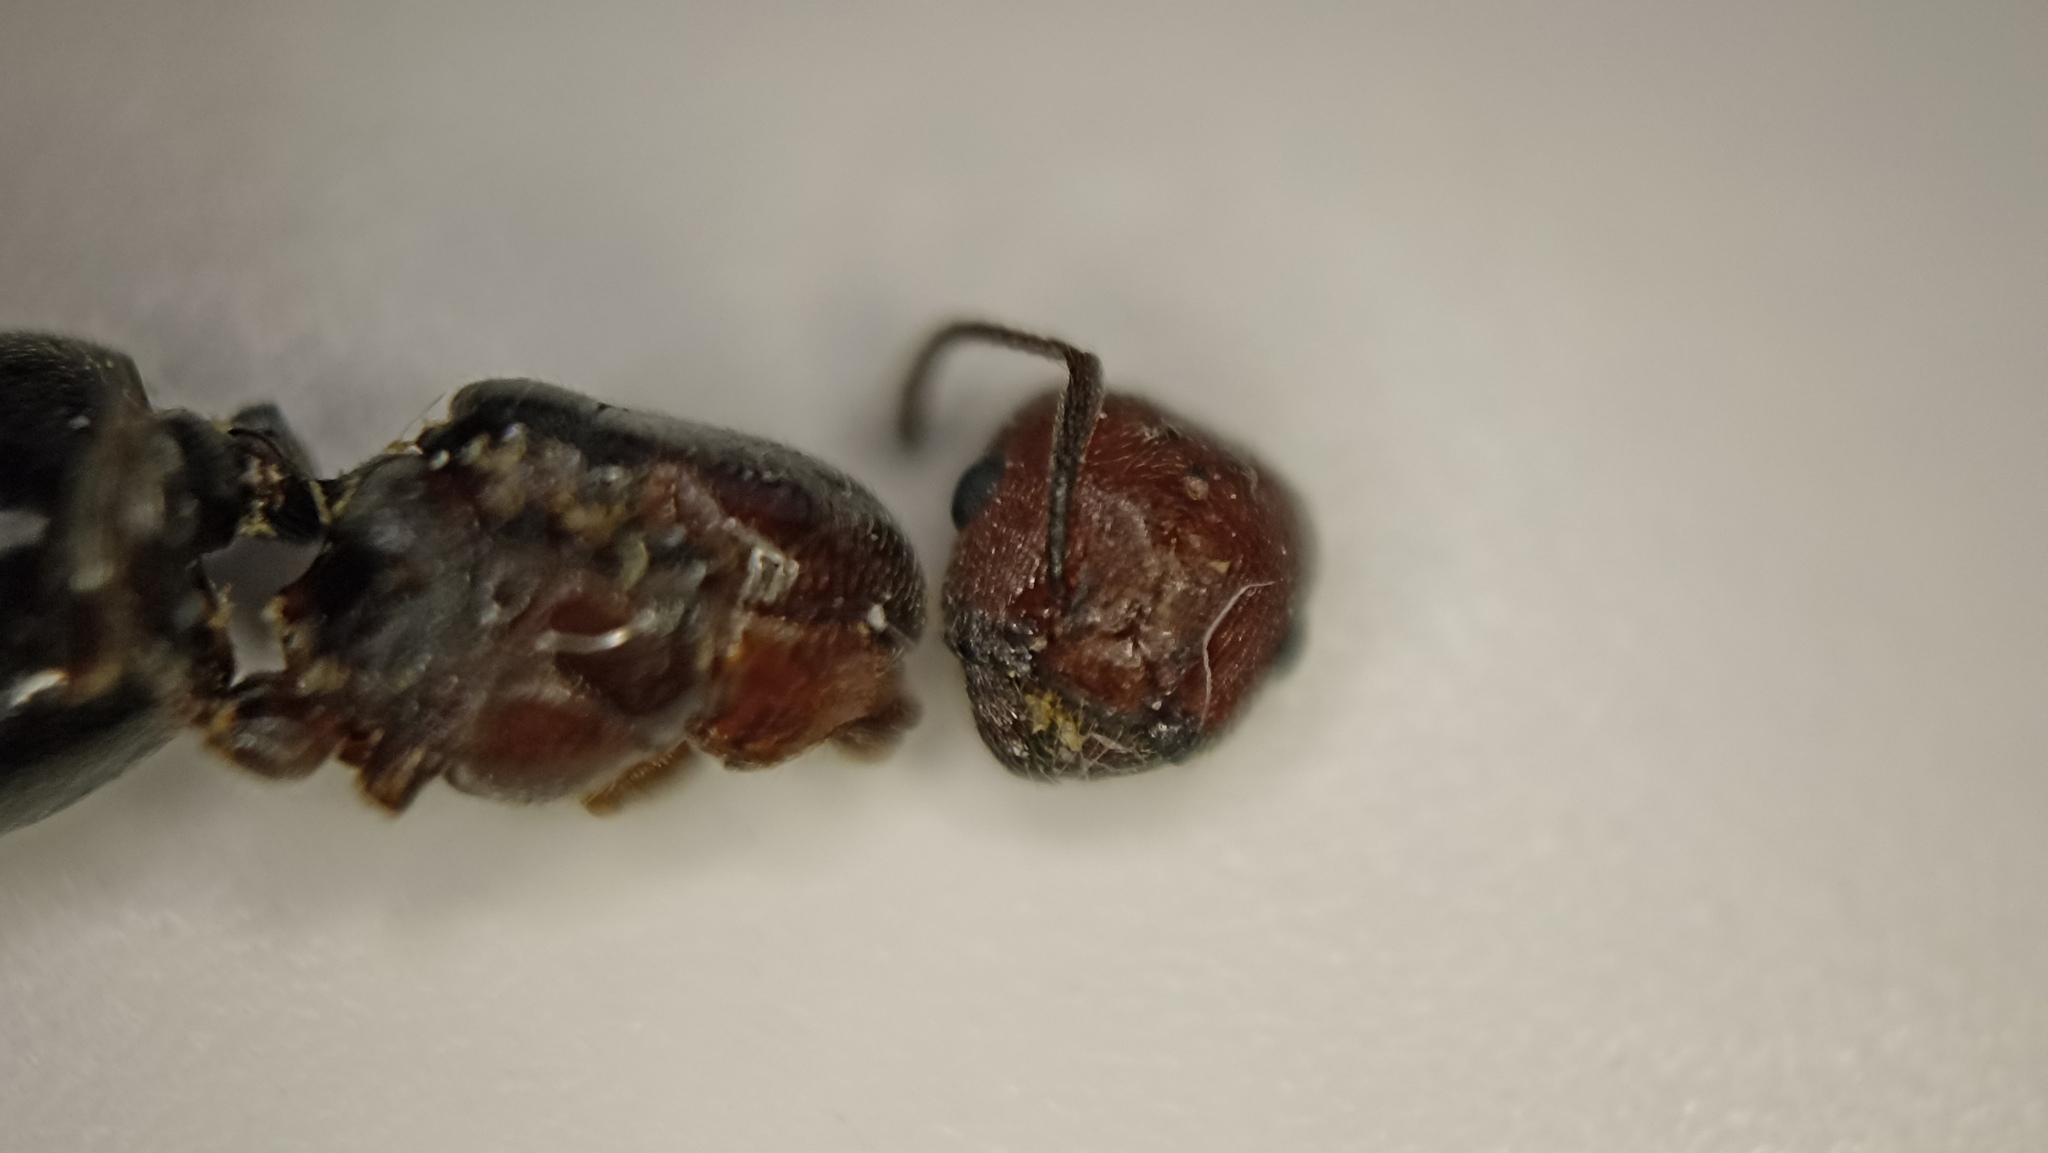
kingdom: Animalia
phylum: Arthropoda
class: Insecta
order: Hymenoptera
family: Formicidae
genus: Crematogaster
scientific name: Crematogaster scutellaris
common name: Fourmi du liège
